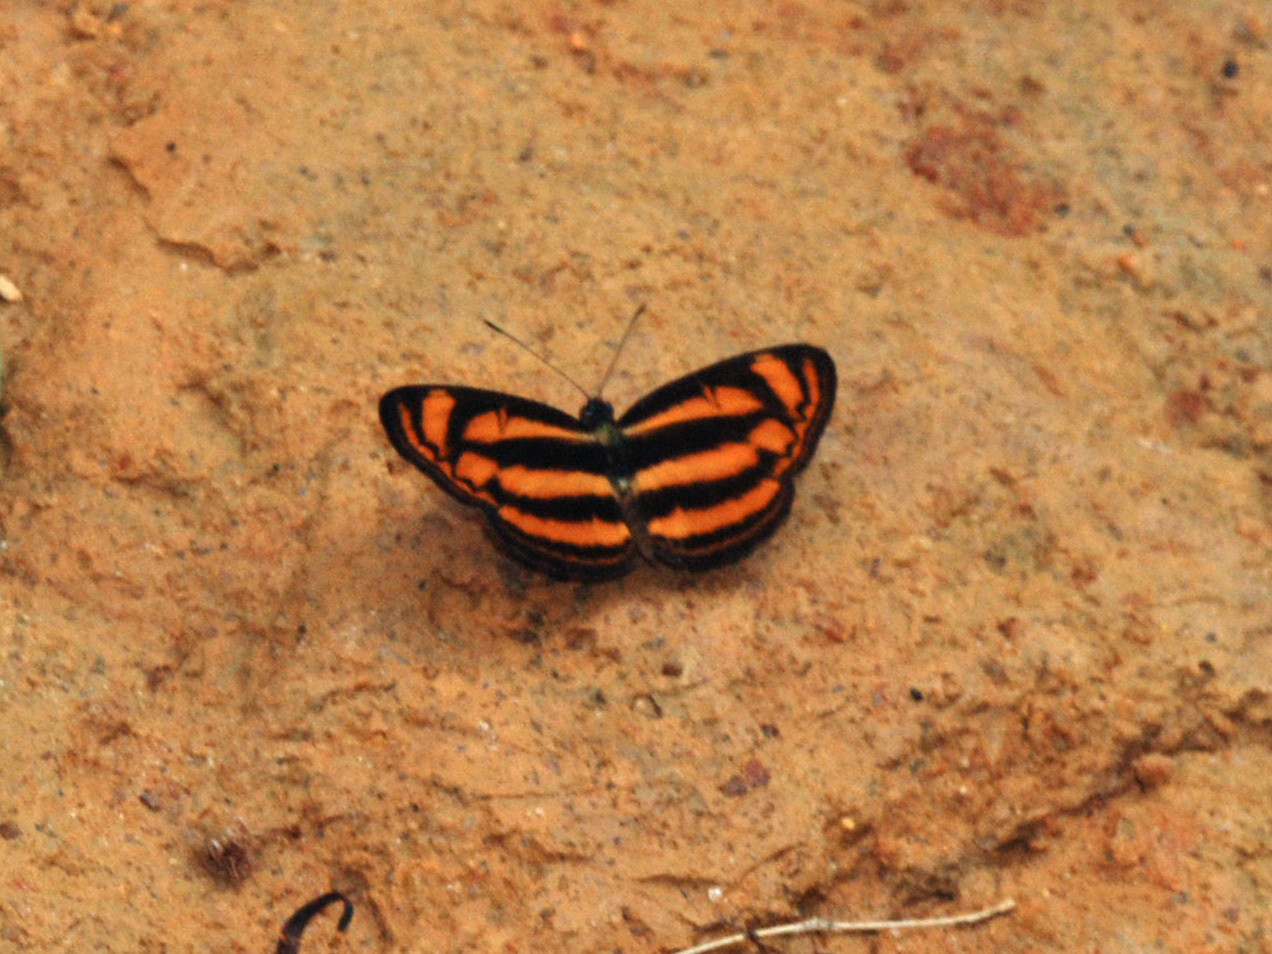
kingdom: Animalia
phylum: Arthropoda
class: Insecta
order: Lepidoptera
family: Nymphalidae
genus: Lasippa
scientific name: Lasippa heliodore
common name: Burmese lascar
